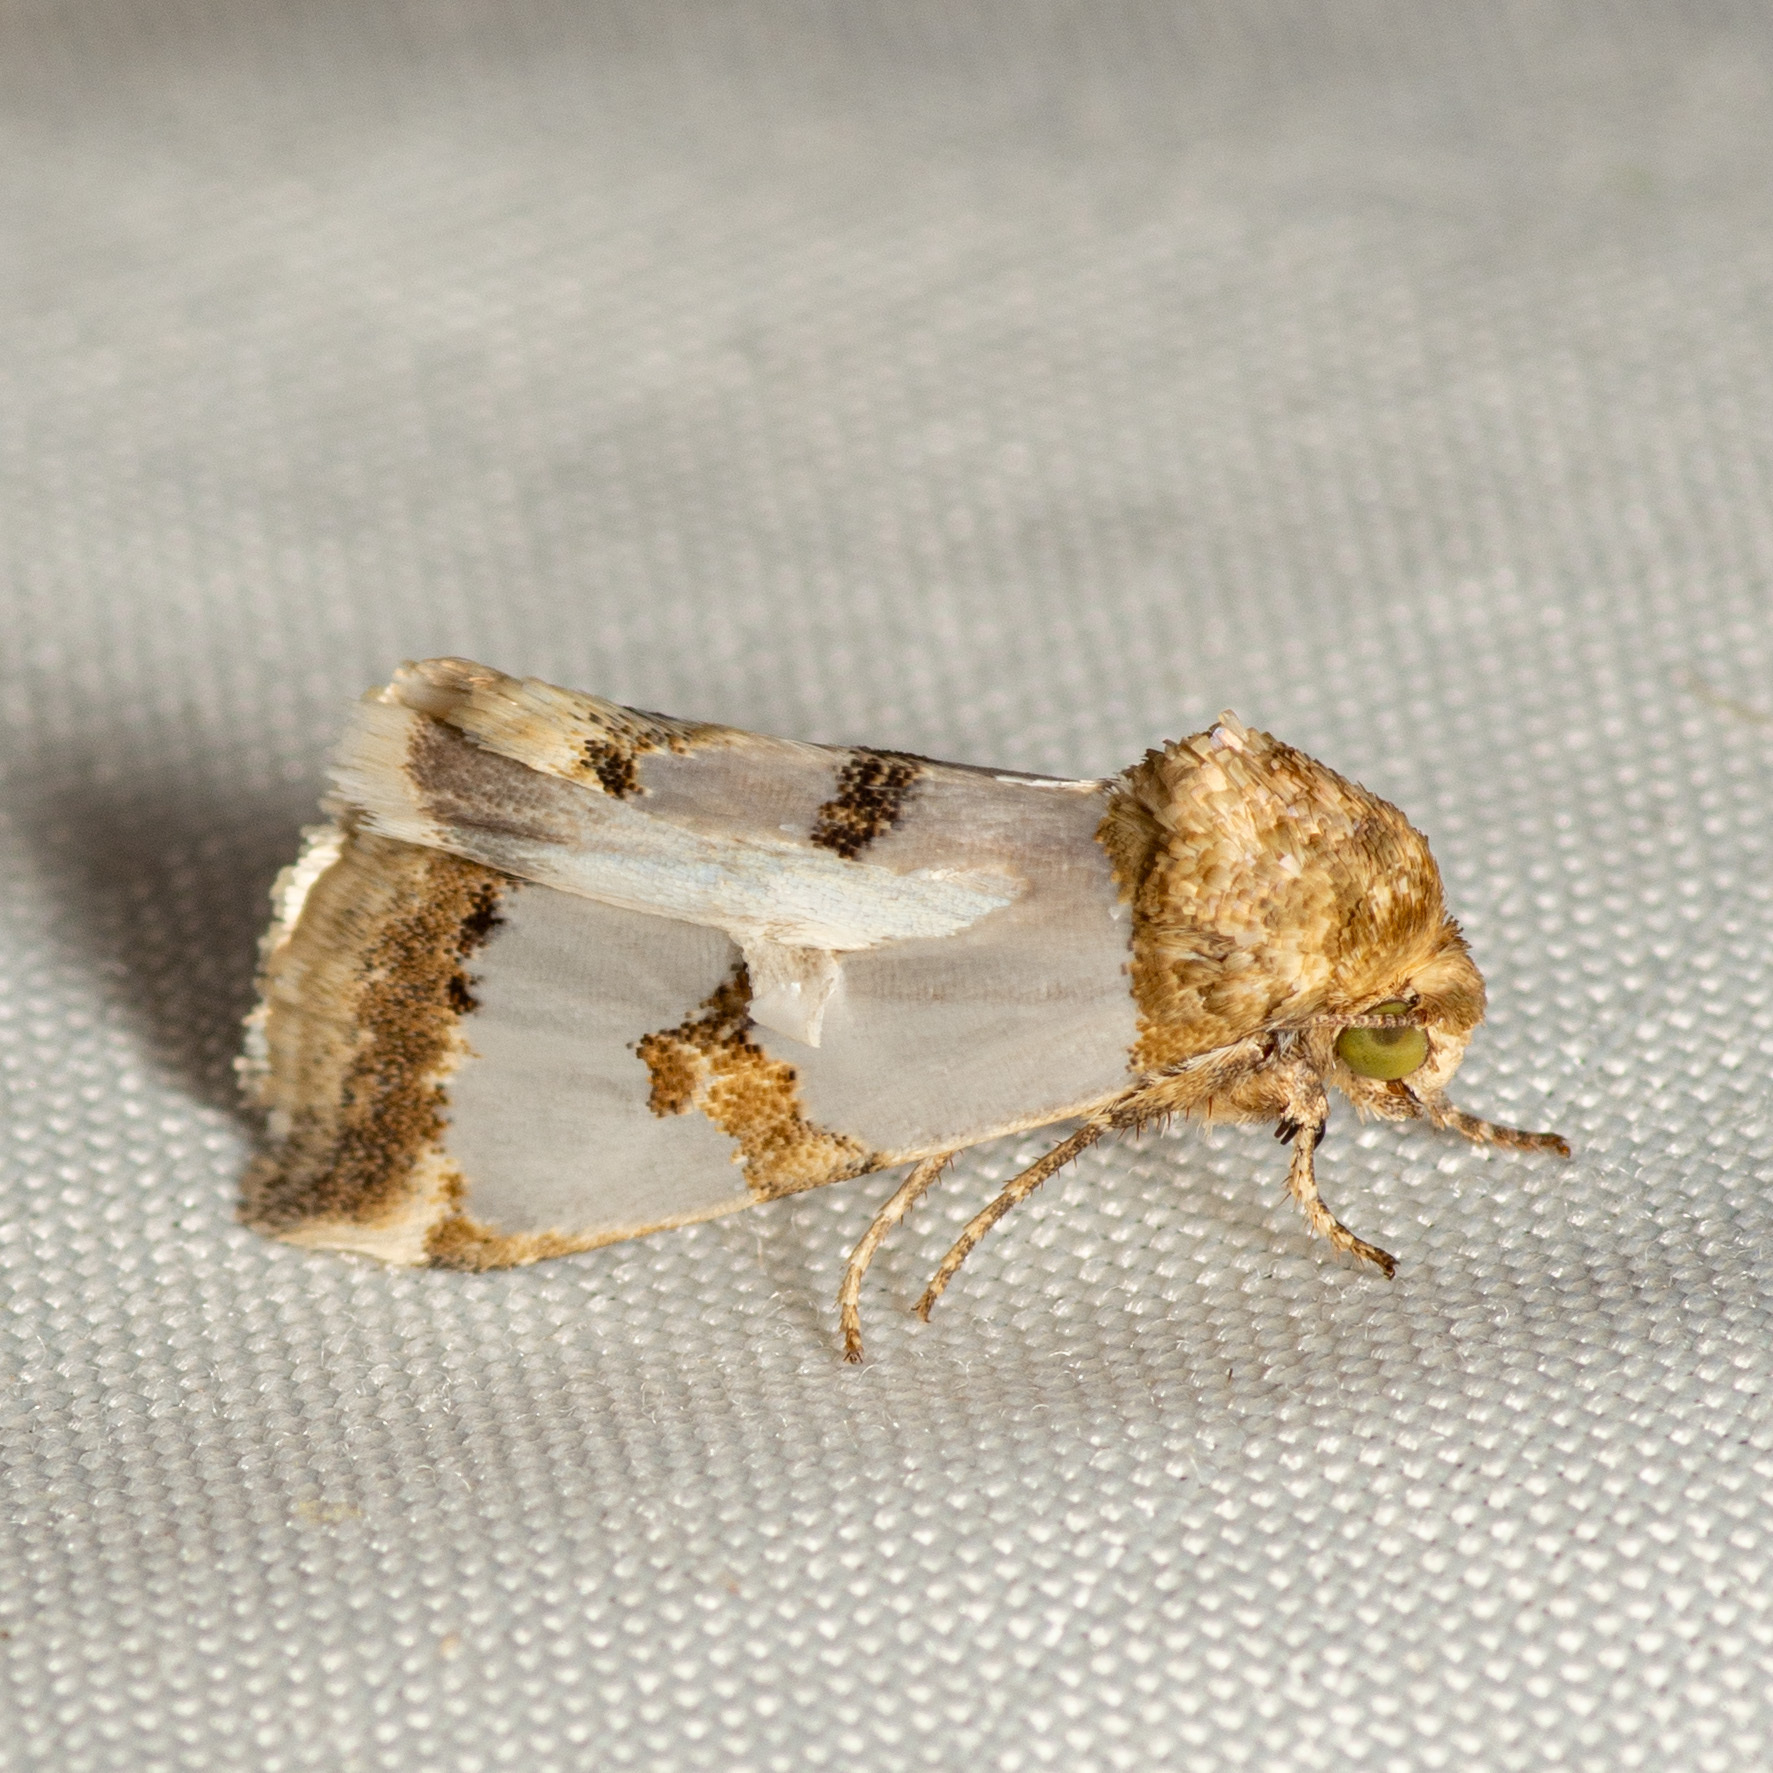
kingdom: Animalia
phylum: Arthropoda
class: Insecta
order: Lepidoptera
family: Noctuidae
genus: Schinia
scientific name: Schinia chrysellus
